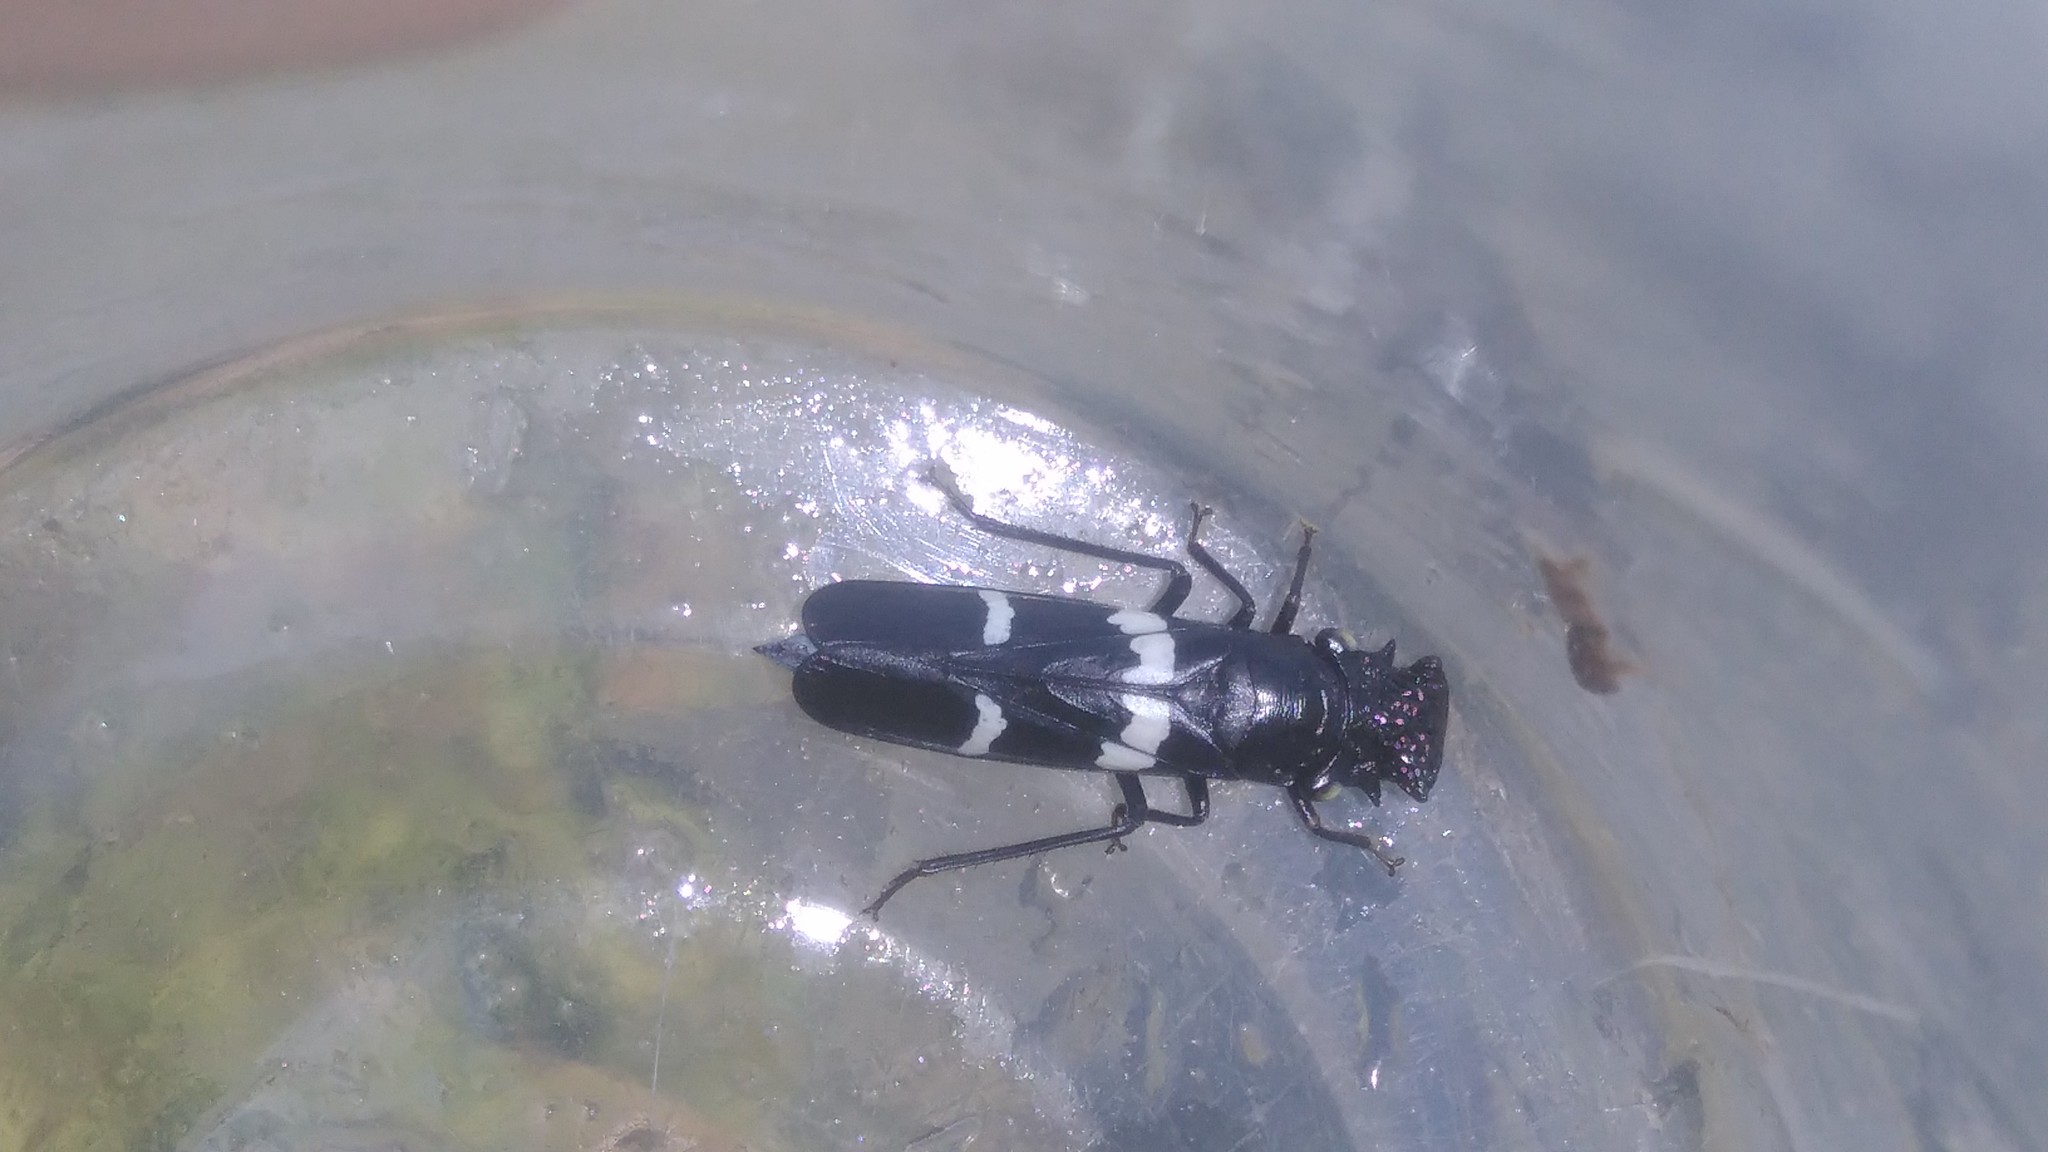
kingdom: Animalia
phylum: Arthropoda
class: Insecta
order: Hemiptera
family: Cicadellidae
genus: Ochrostacta
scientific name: Ochrostacta diadema
